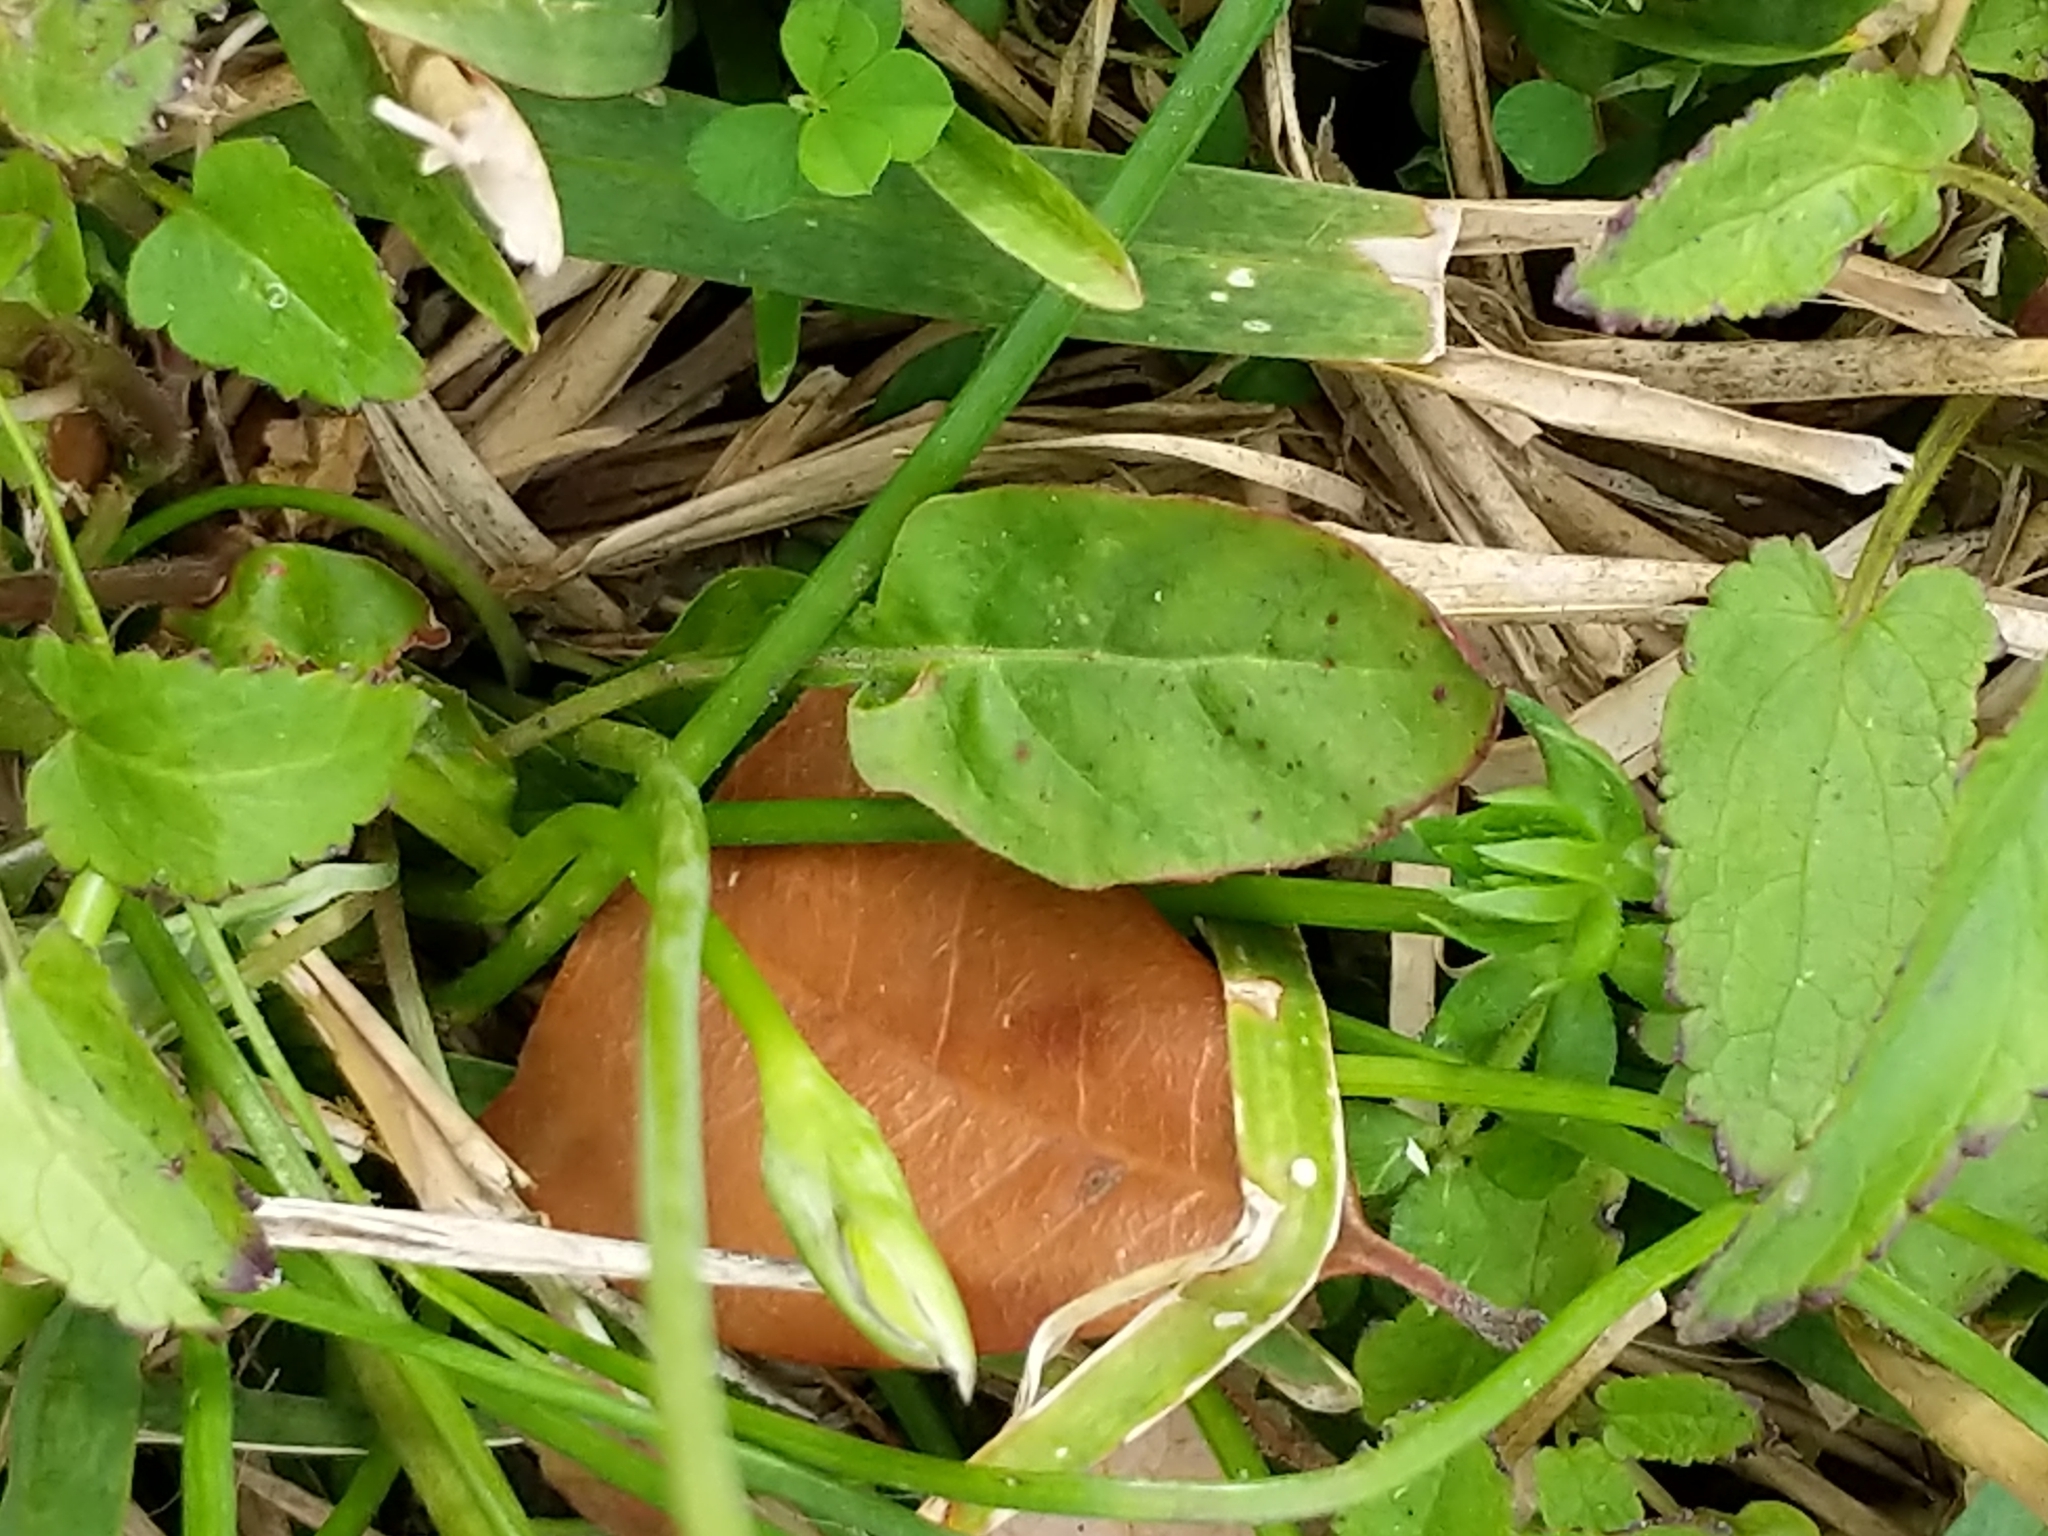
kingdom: Plantae
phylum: Tracheophyta
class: Liliopsida
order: Asparagales
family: Amaryllidaceae
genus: Nothoscordum
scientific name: Nothoscordum bivalve
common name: Crow-poison
